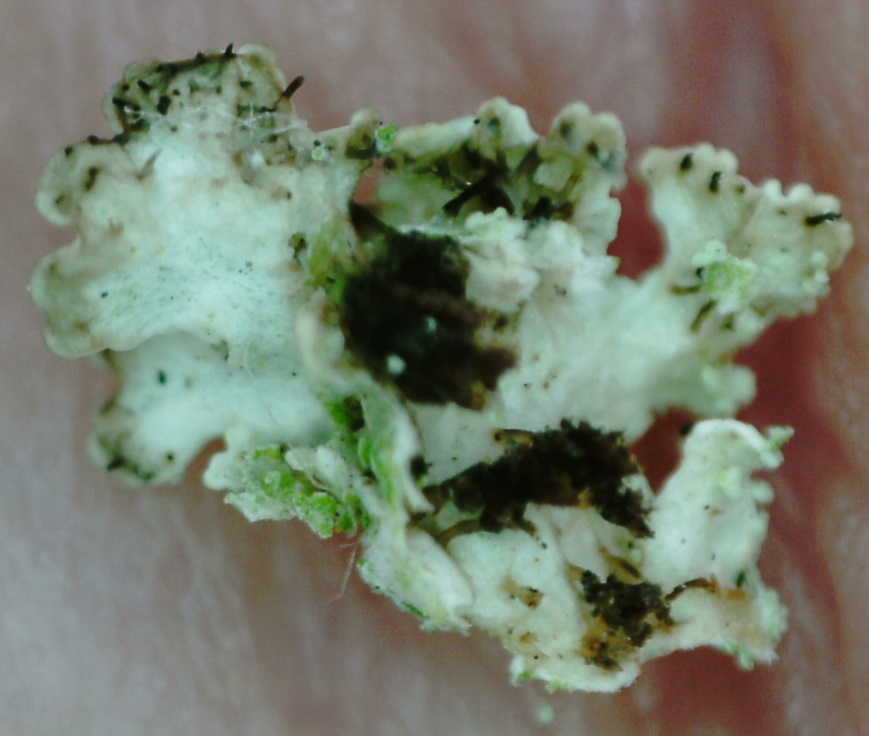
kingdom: Fungi
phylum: Ascomycota
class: Lecanoromycetes
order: Lecanorales
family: Parmeliaceae
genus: Imshaugia
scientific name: Imshaugia aleurites
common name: Salted starburst lichen
